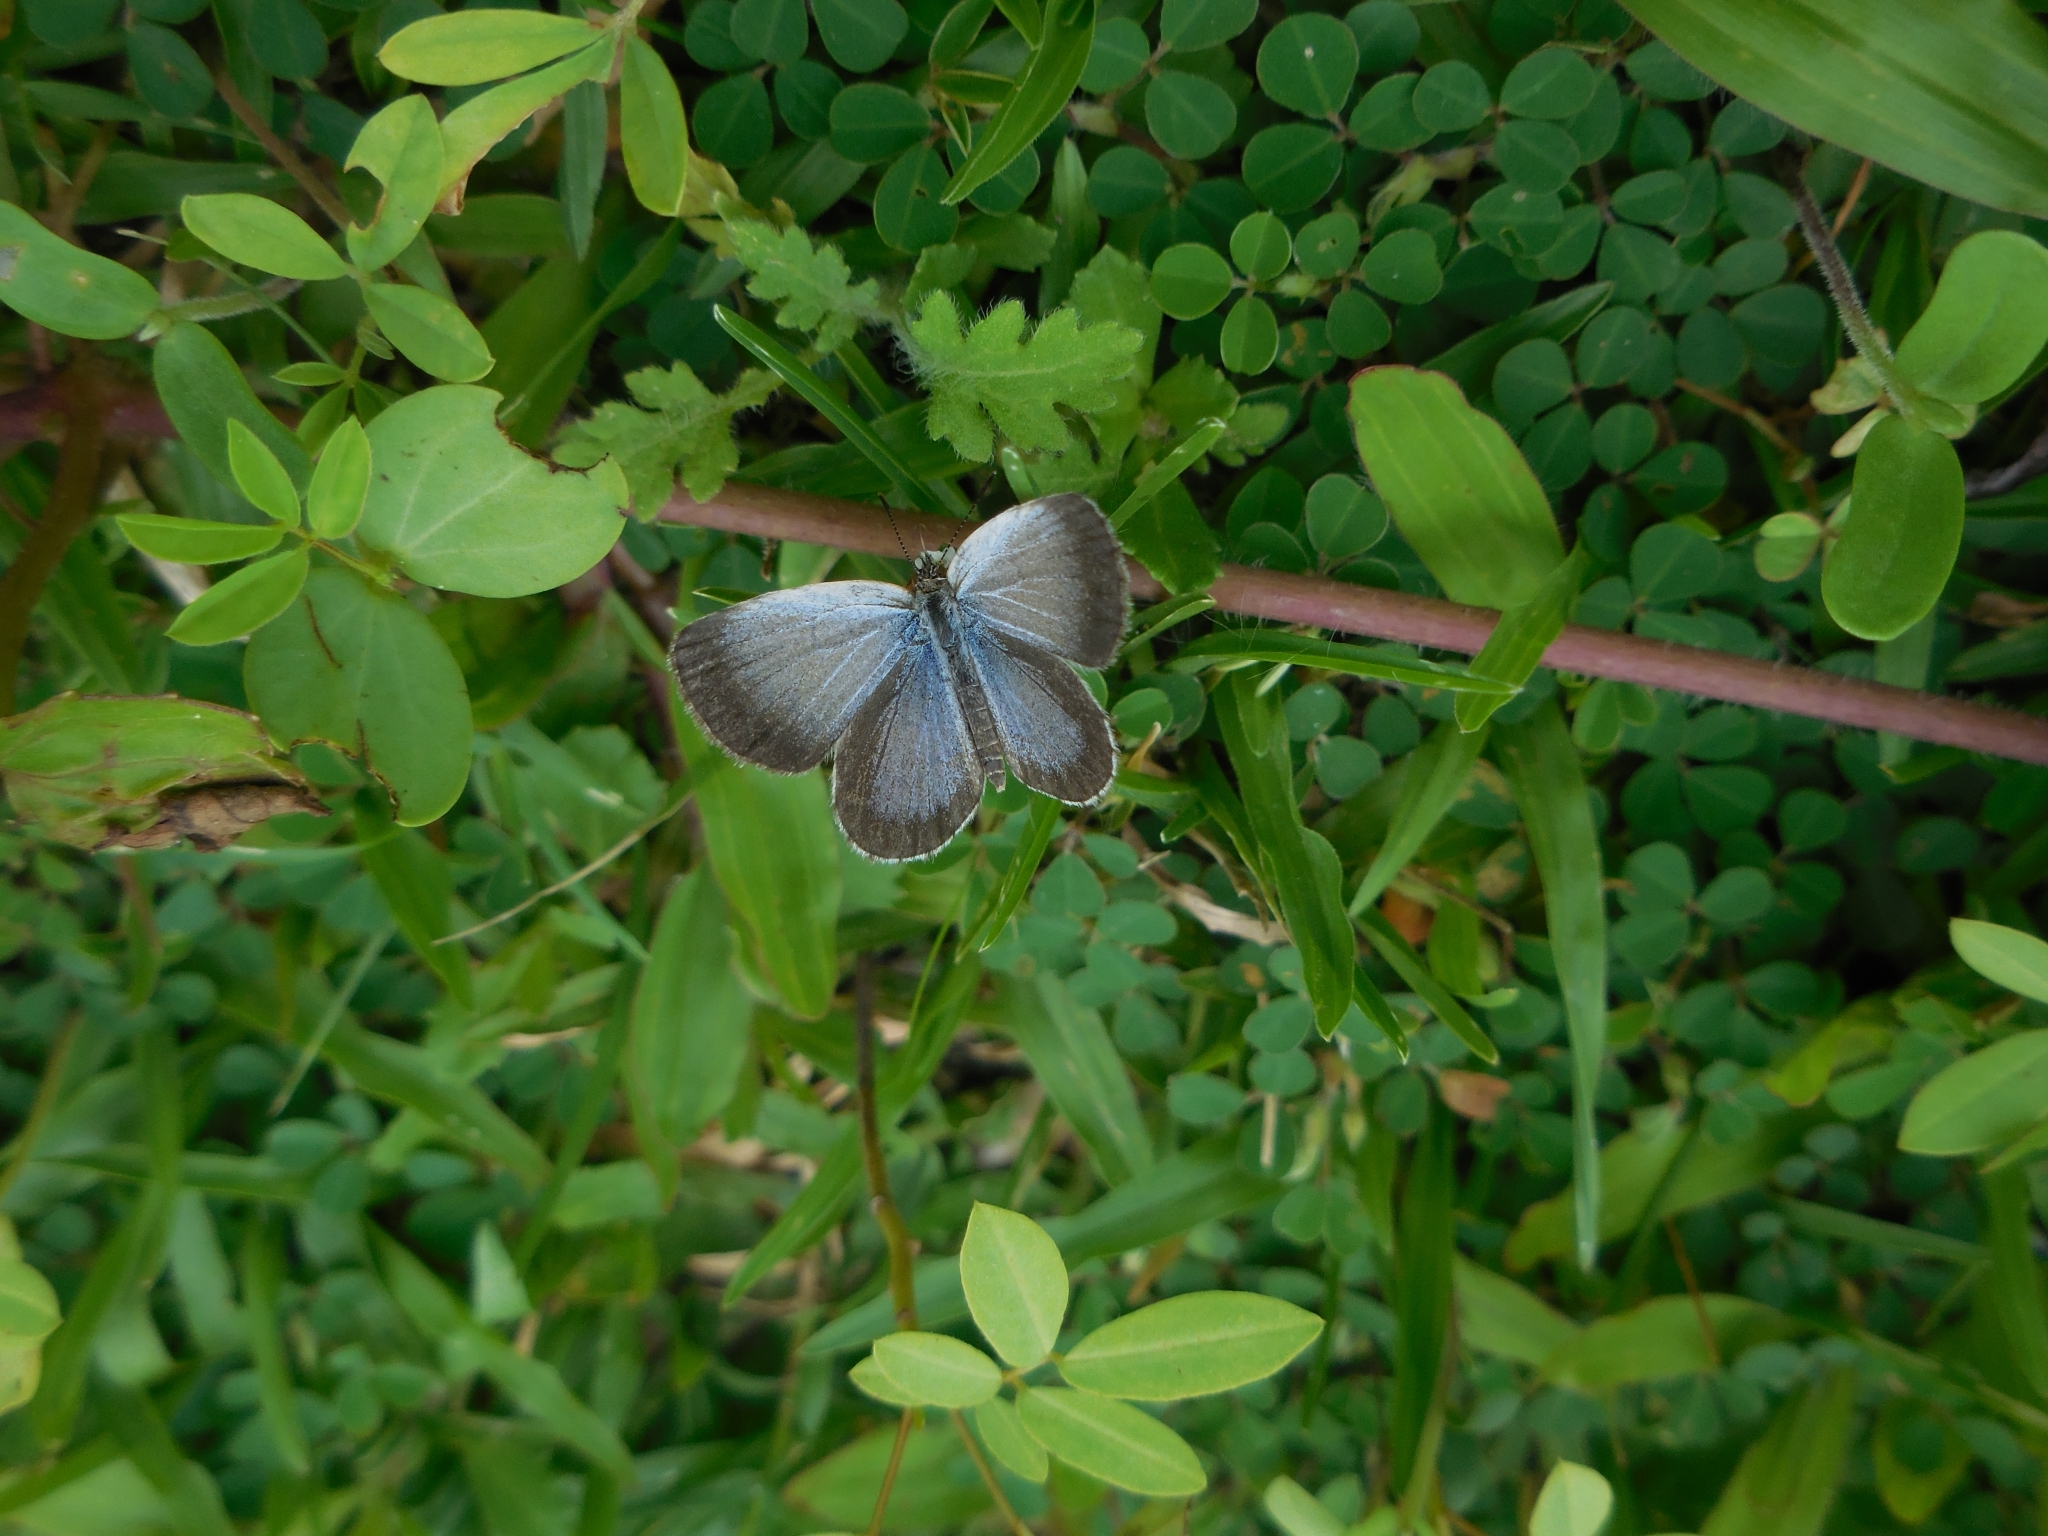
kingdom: Animalia
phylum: Arthropoda
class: Insecta
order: Lepidoptera
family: Lycaenidae
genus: Pseudozizeeria
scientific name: Pseudozizeeria maha
